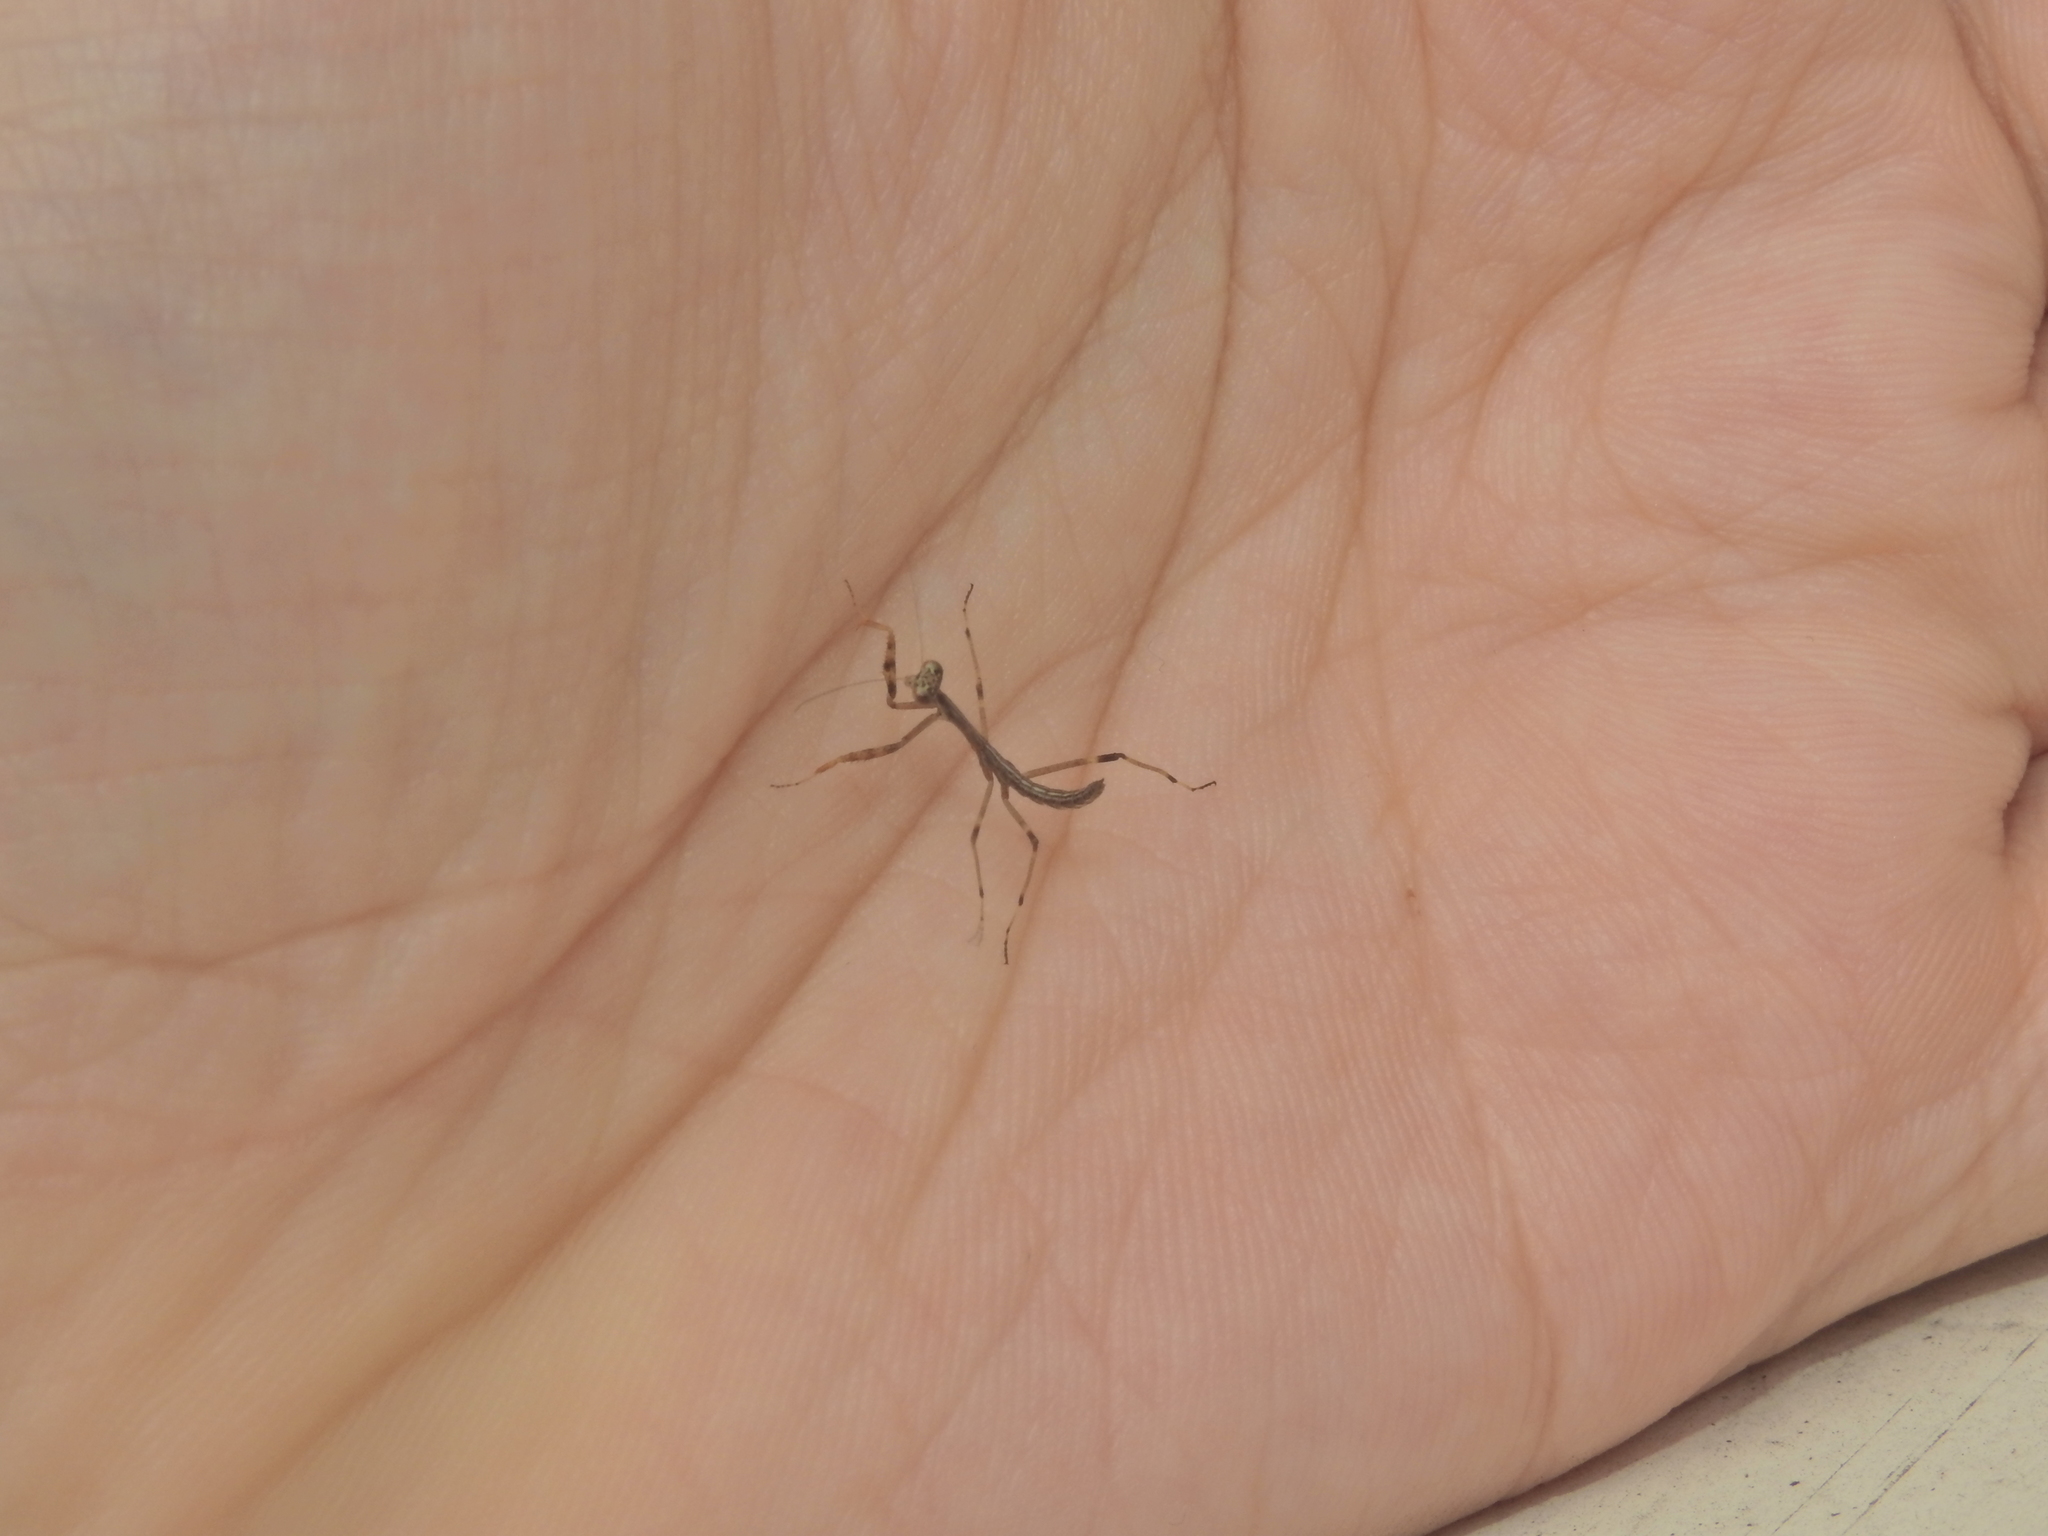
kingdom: Animalia
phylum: Arthropoda
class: Insecta
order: Mantodea
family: Mantidae
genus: Archimantis
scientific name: Archimantis latistyla
